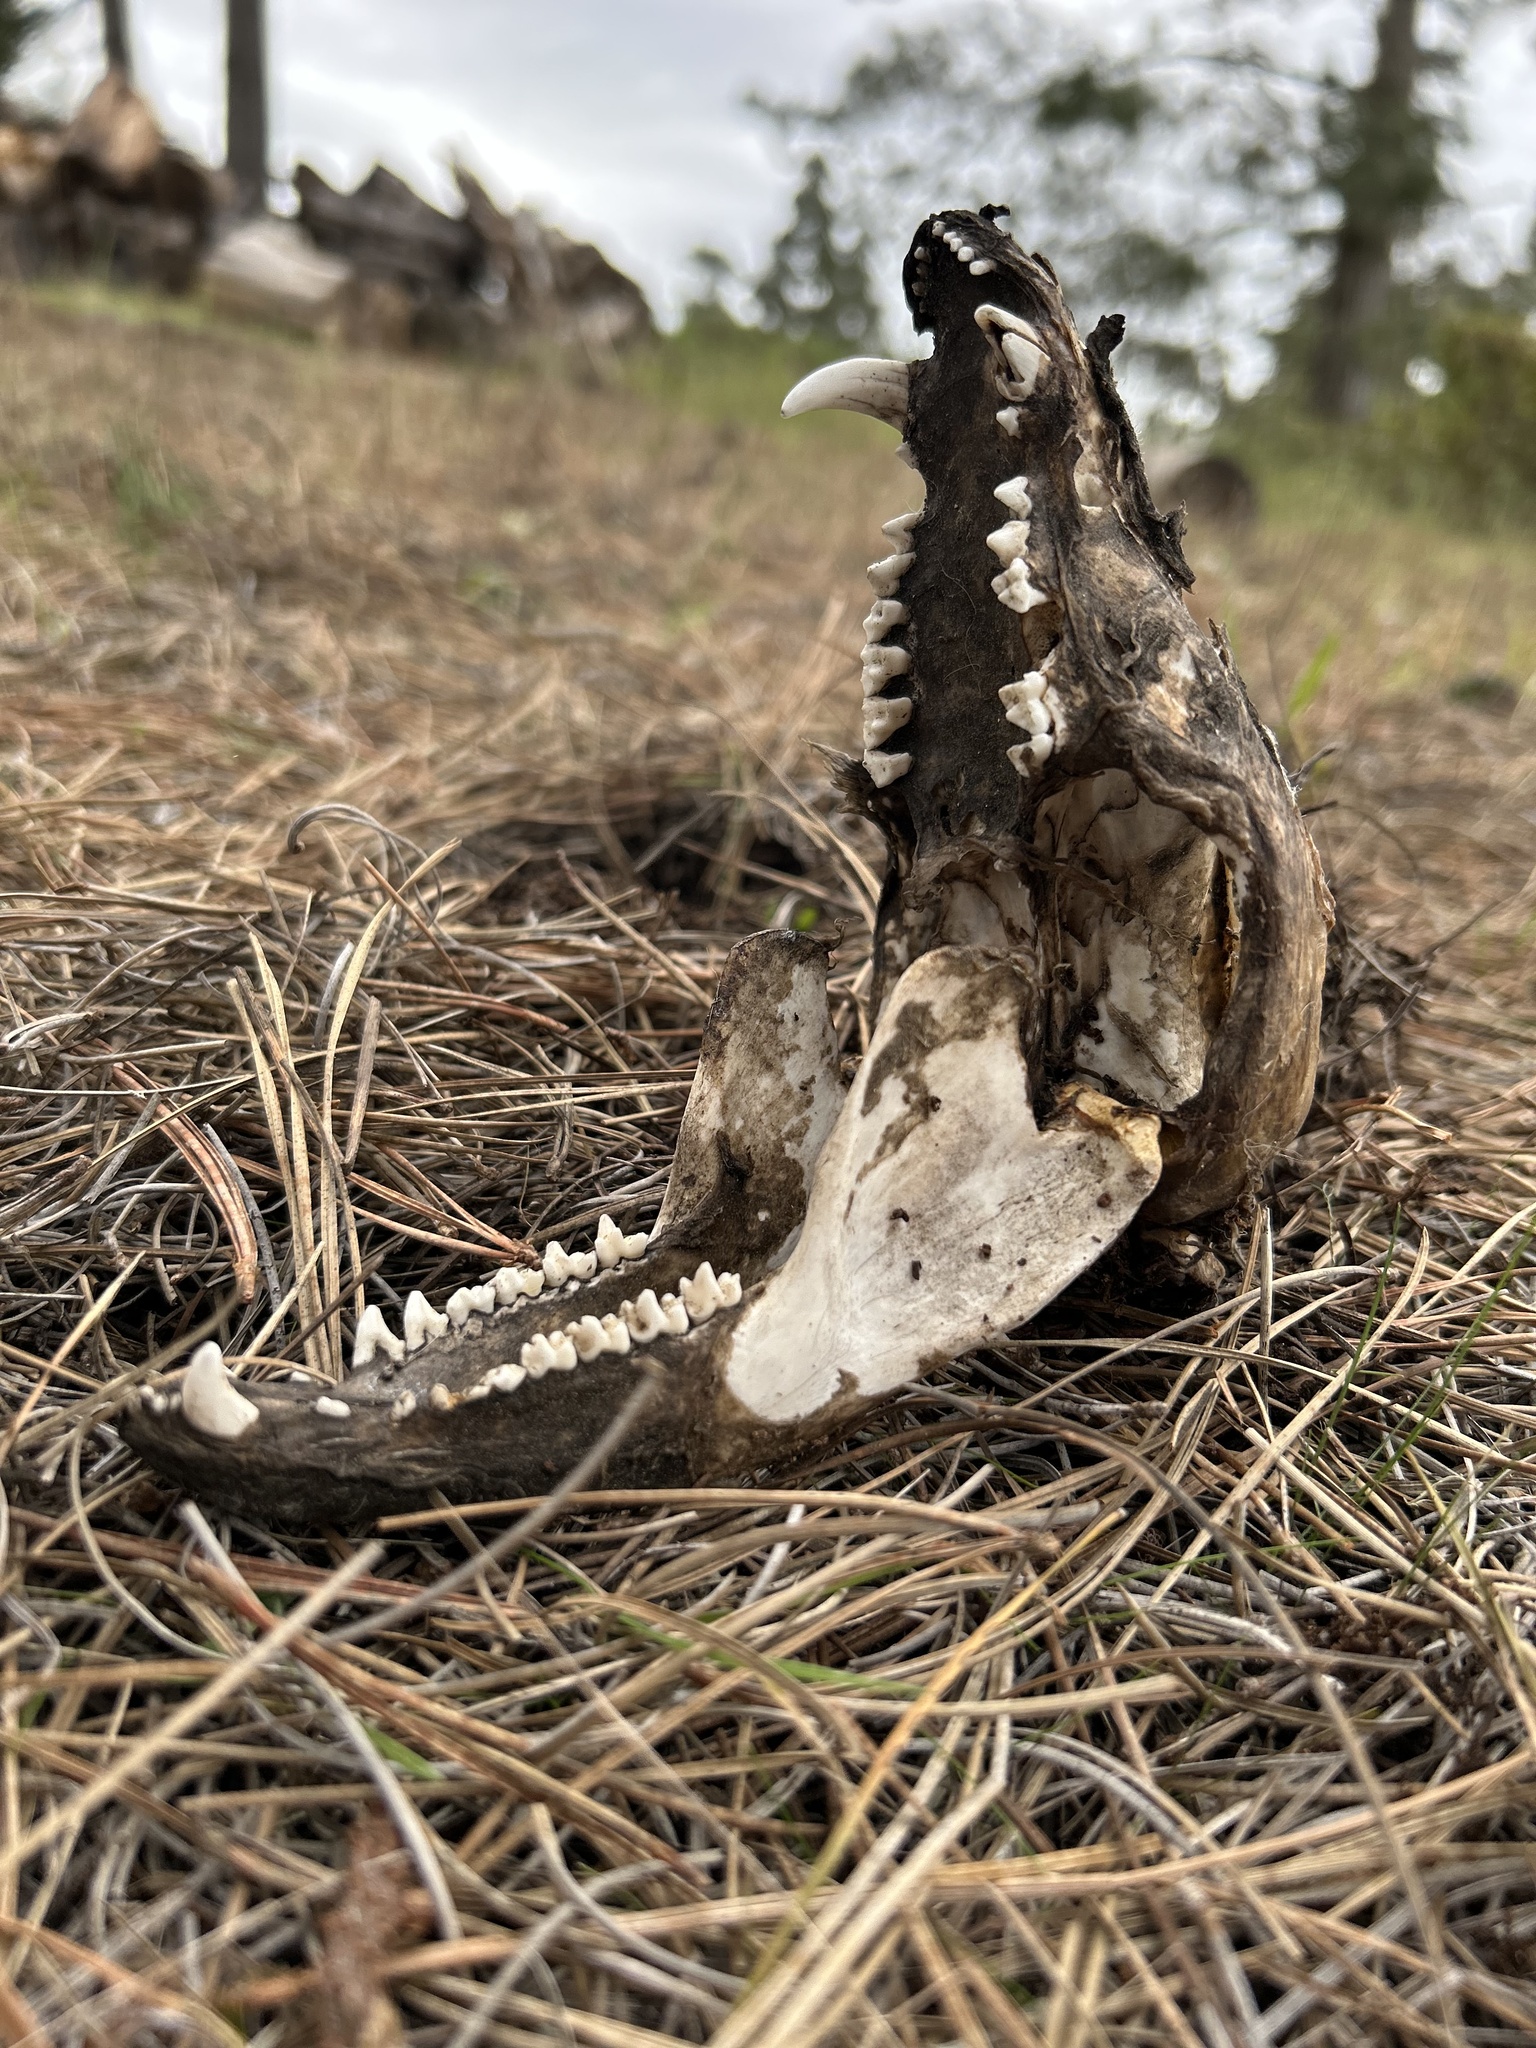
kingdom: Animalia
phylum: Chordata
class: Mammalia
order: Didelphimorphia
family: Didelphidae
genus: Didelphis
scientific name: Didelphis virginiana
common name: Virginia opossum
